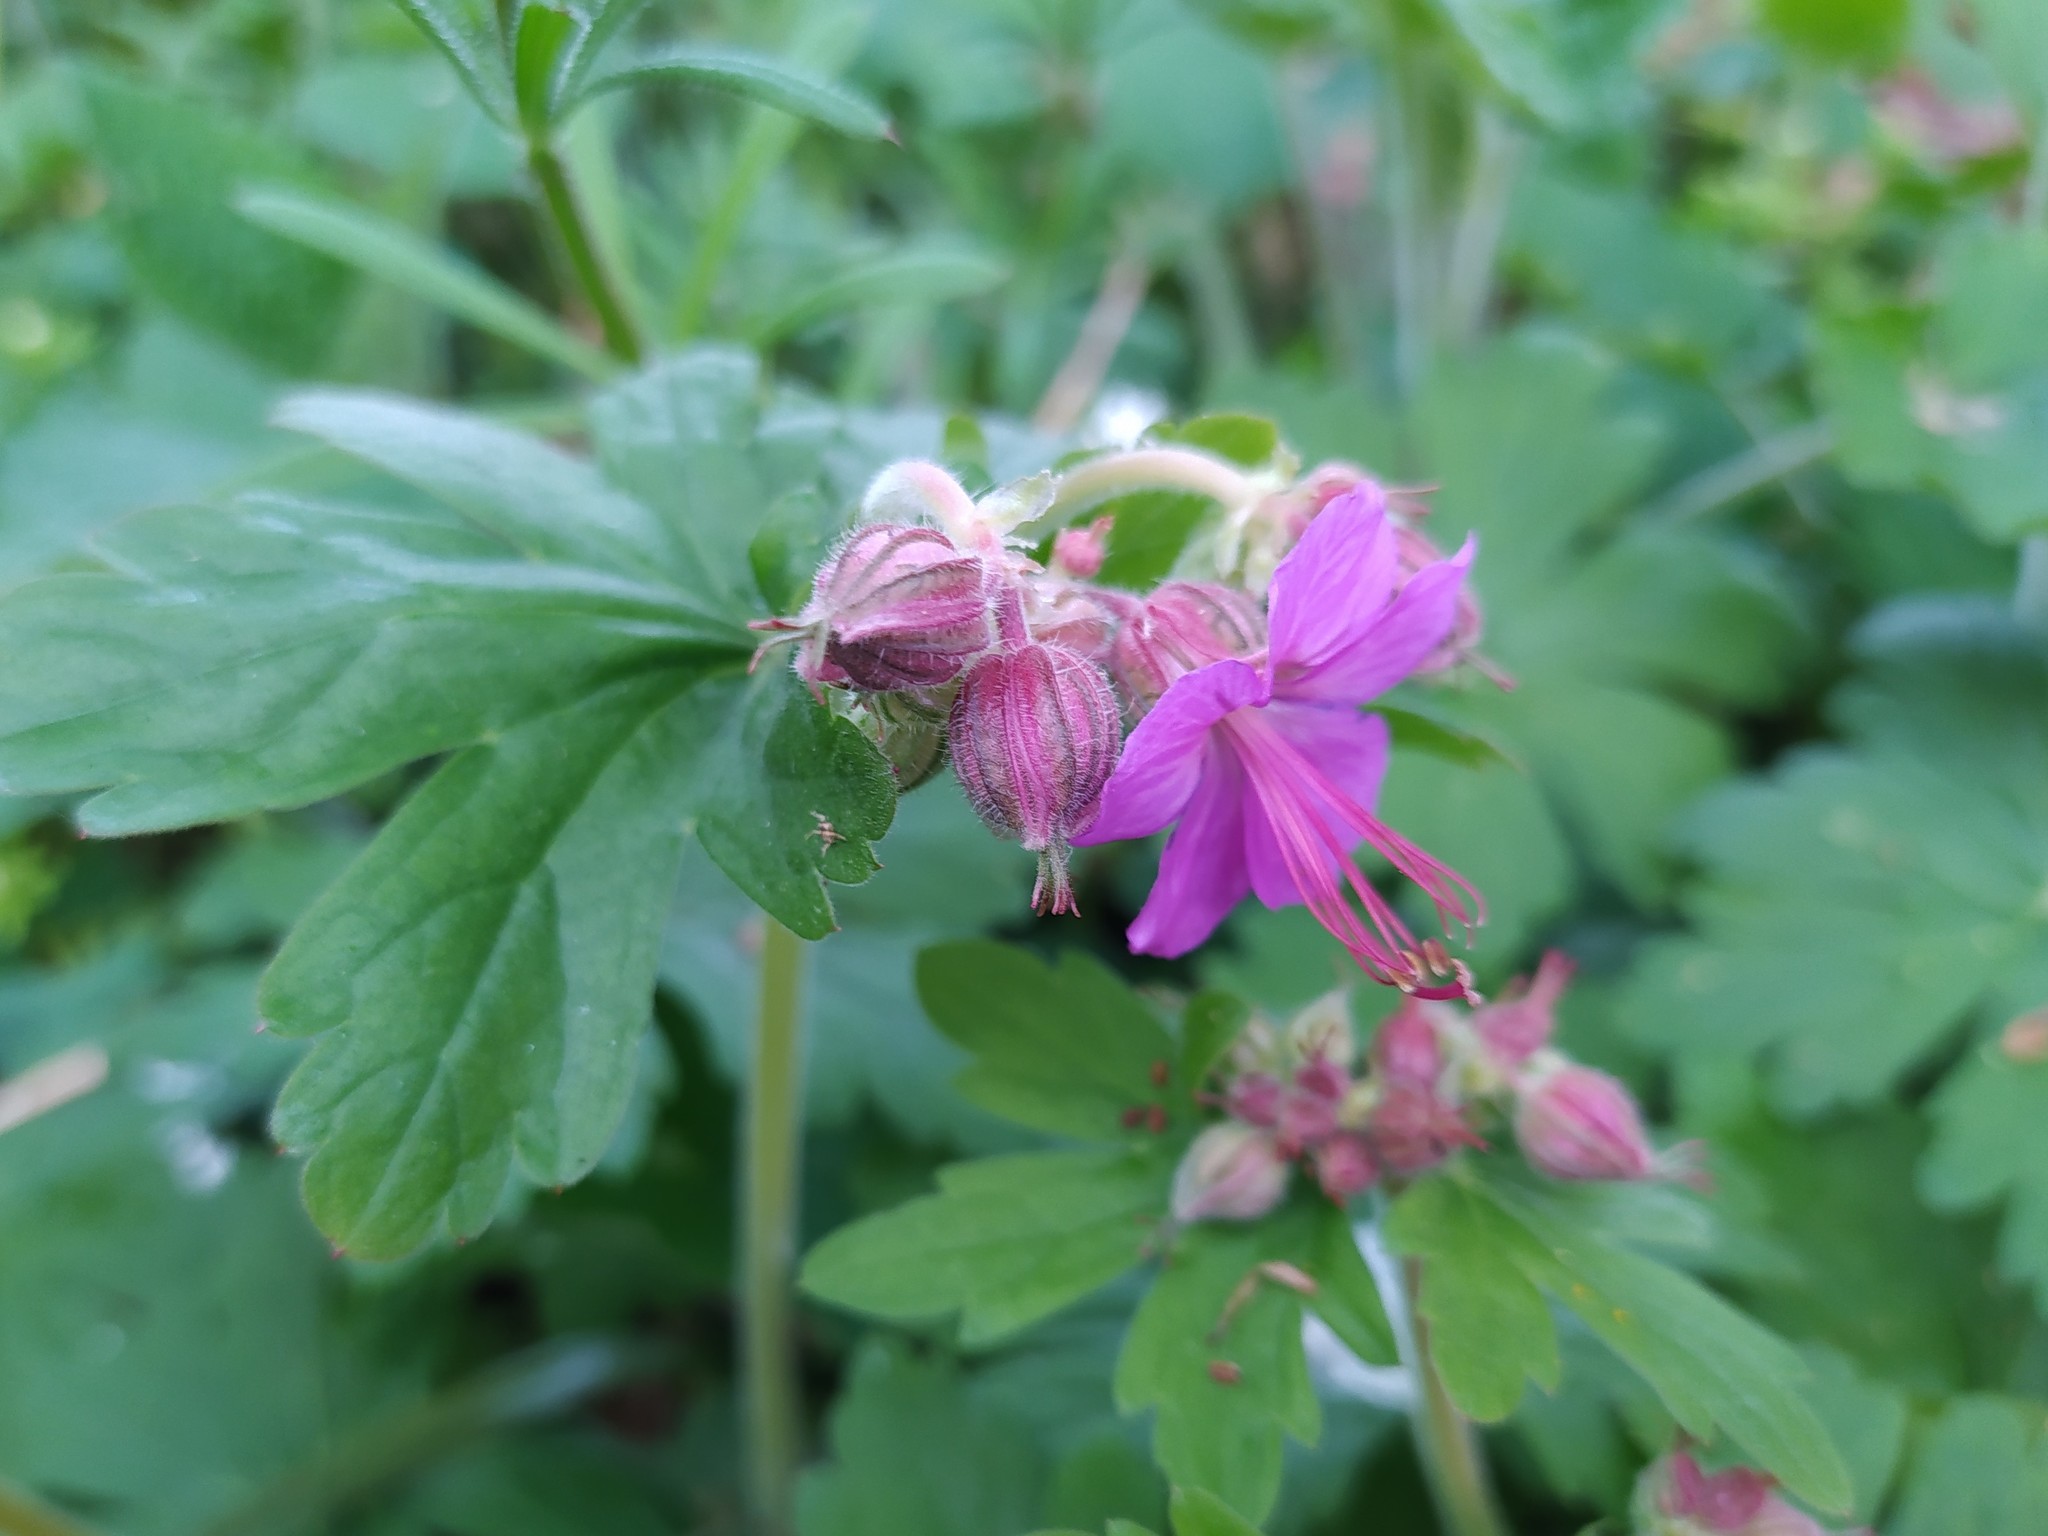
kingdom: Plantae
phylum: Tracheophyta
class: Magnoliopsida
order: Geraniales
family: Geraniaceae
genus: Geranium
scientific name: Geranium macrorrhizum
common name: Rock crane's-bill
